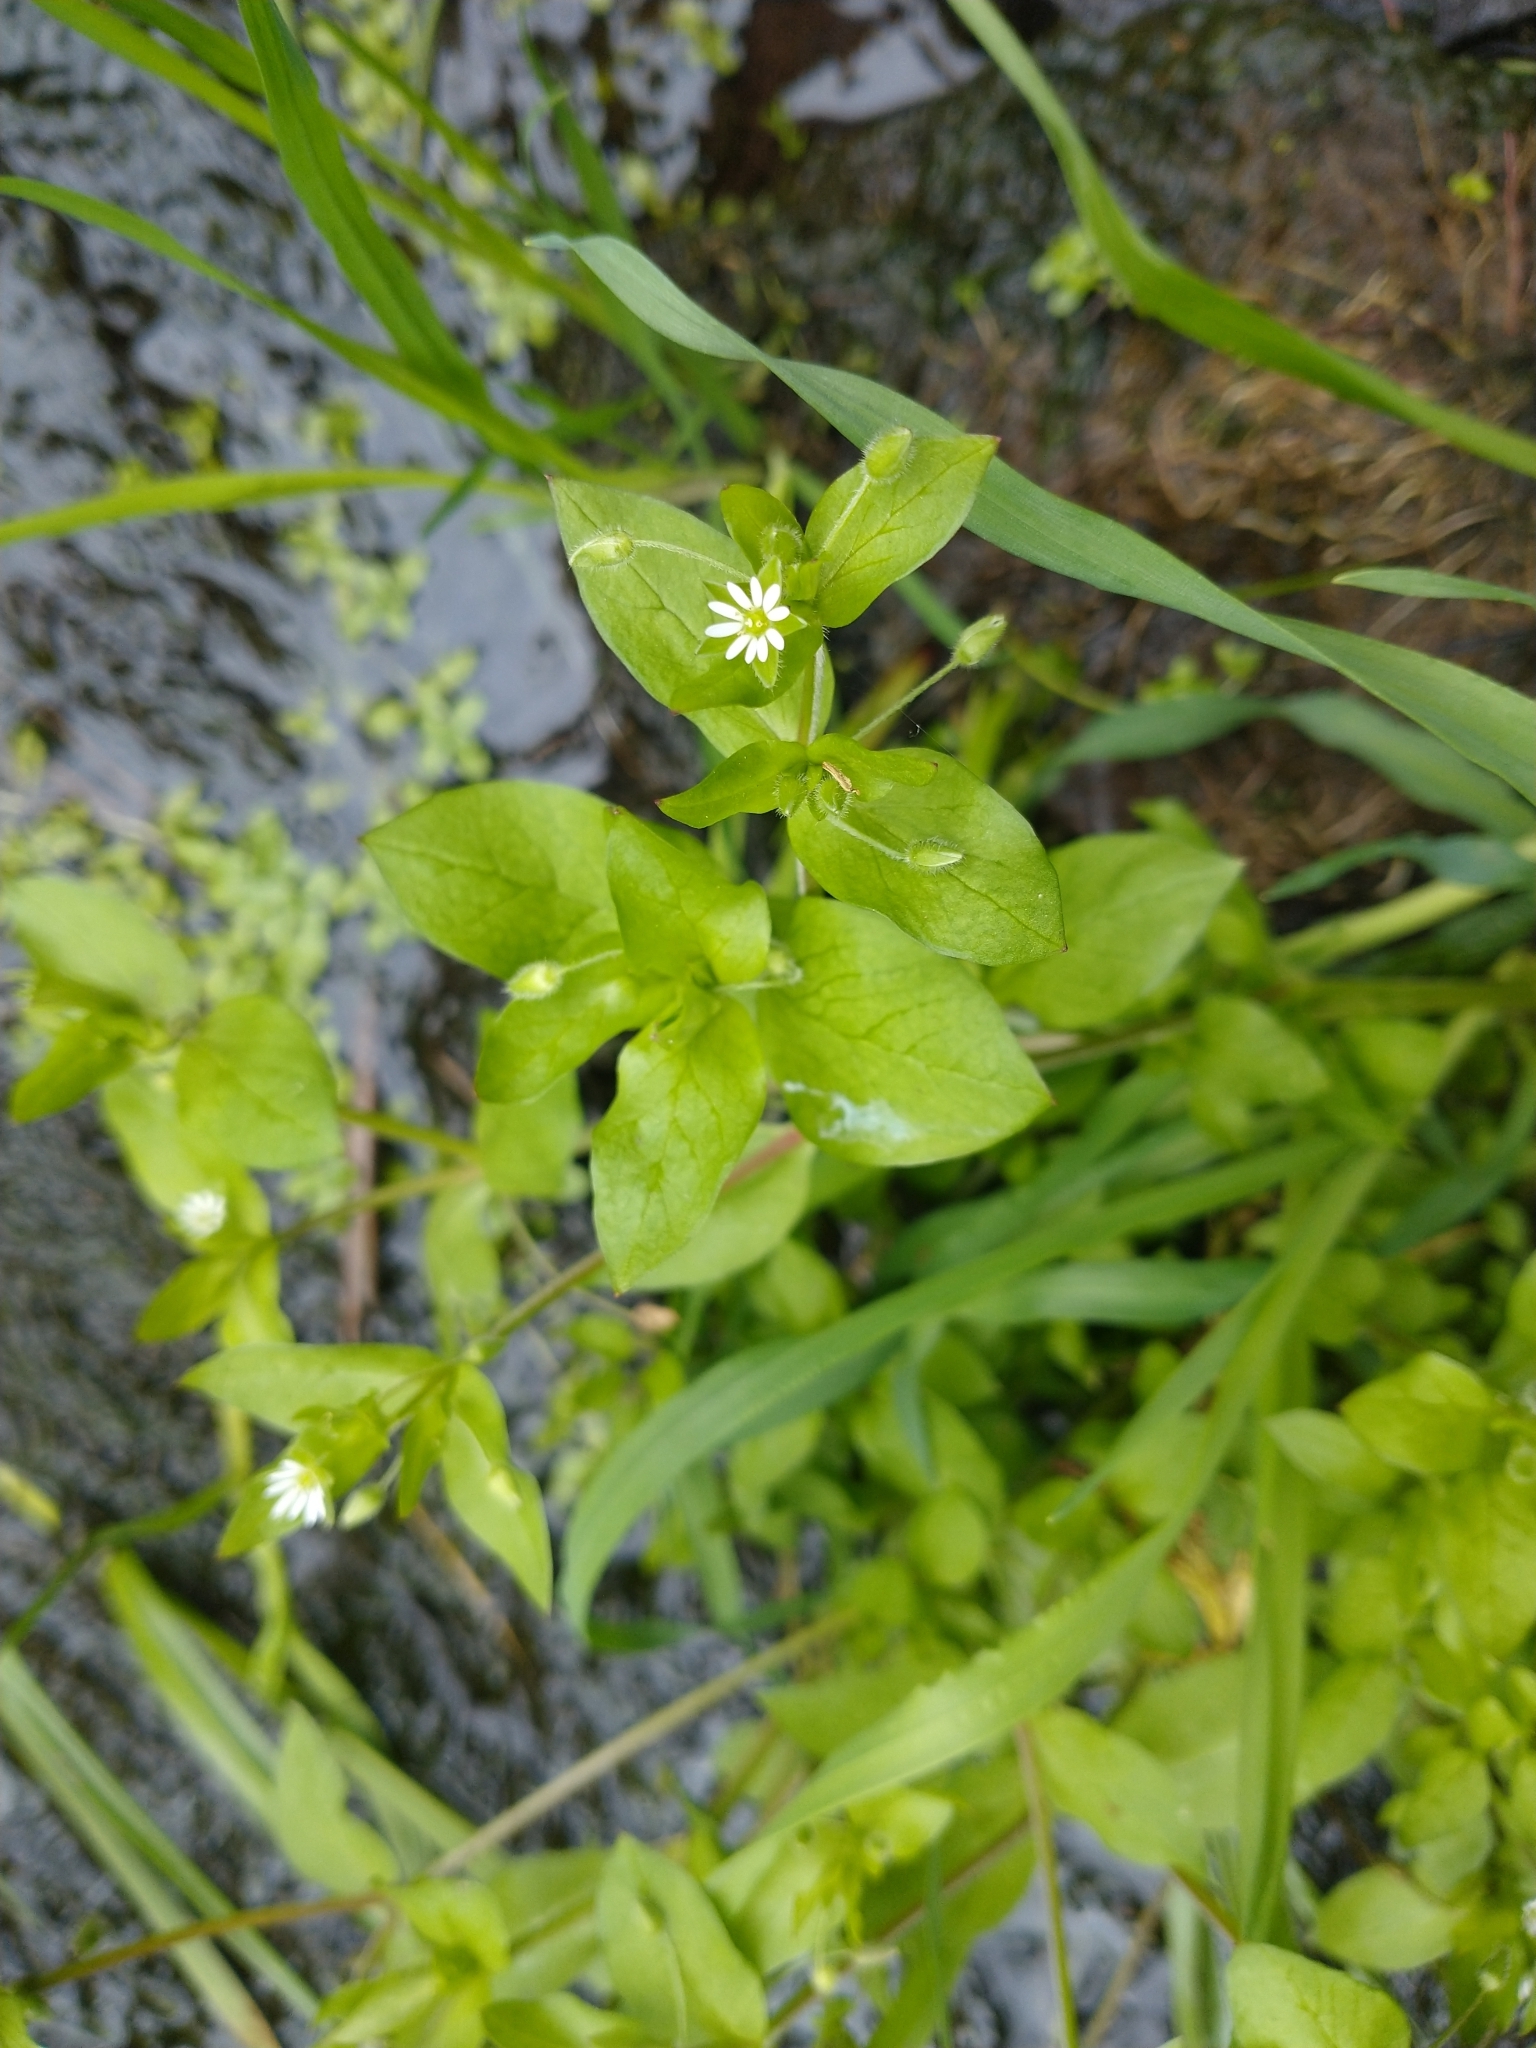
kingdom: Plantae
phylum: Tracheophyta
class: Magnoliopsida
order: Caryophyllales
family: Caryophyllaceae
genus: Stellaria
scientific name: Stellaria media
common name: Common chickweed
